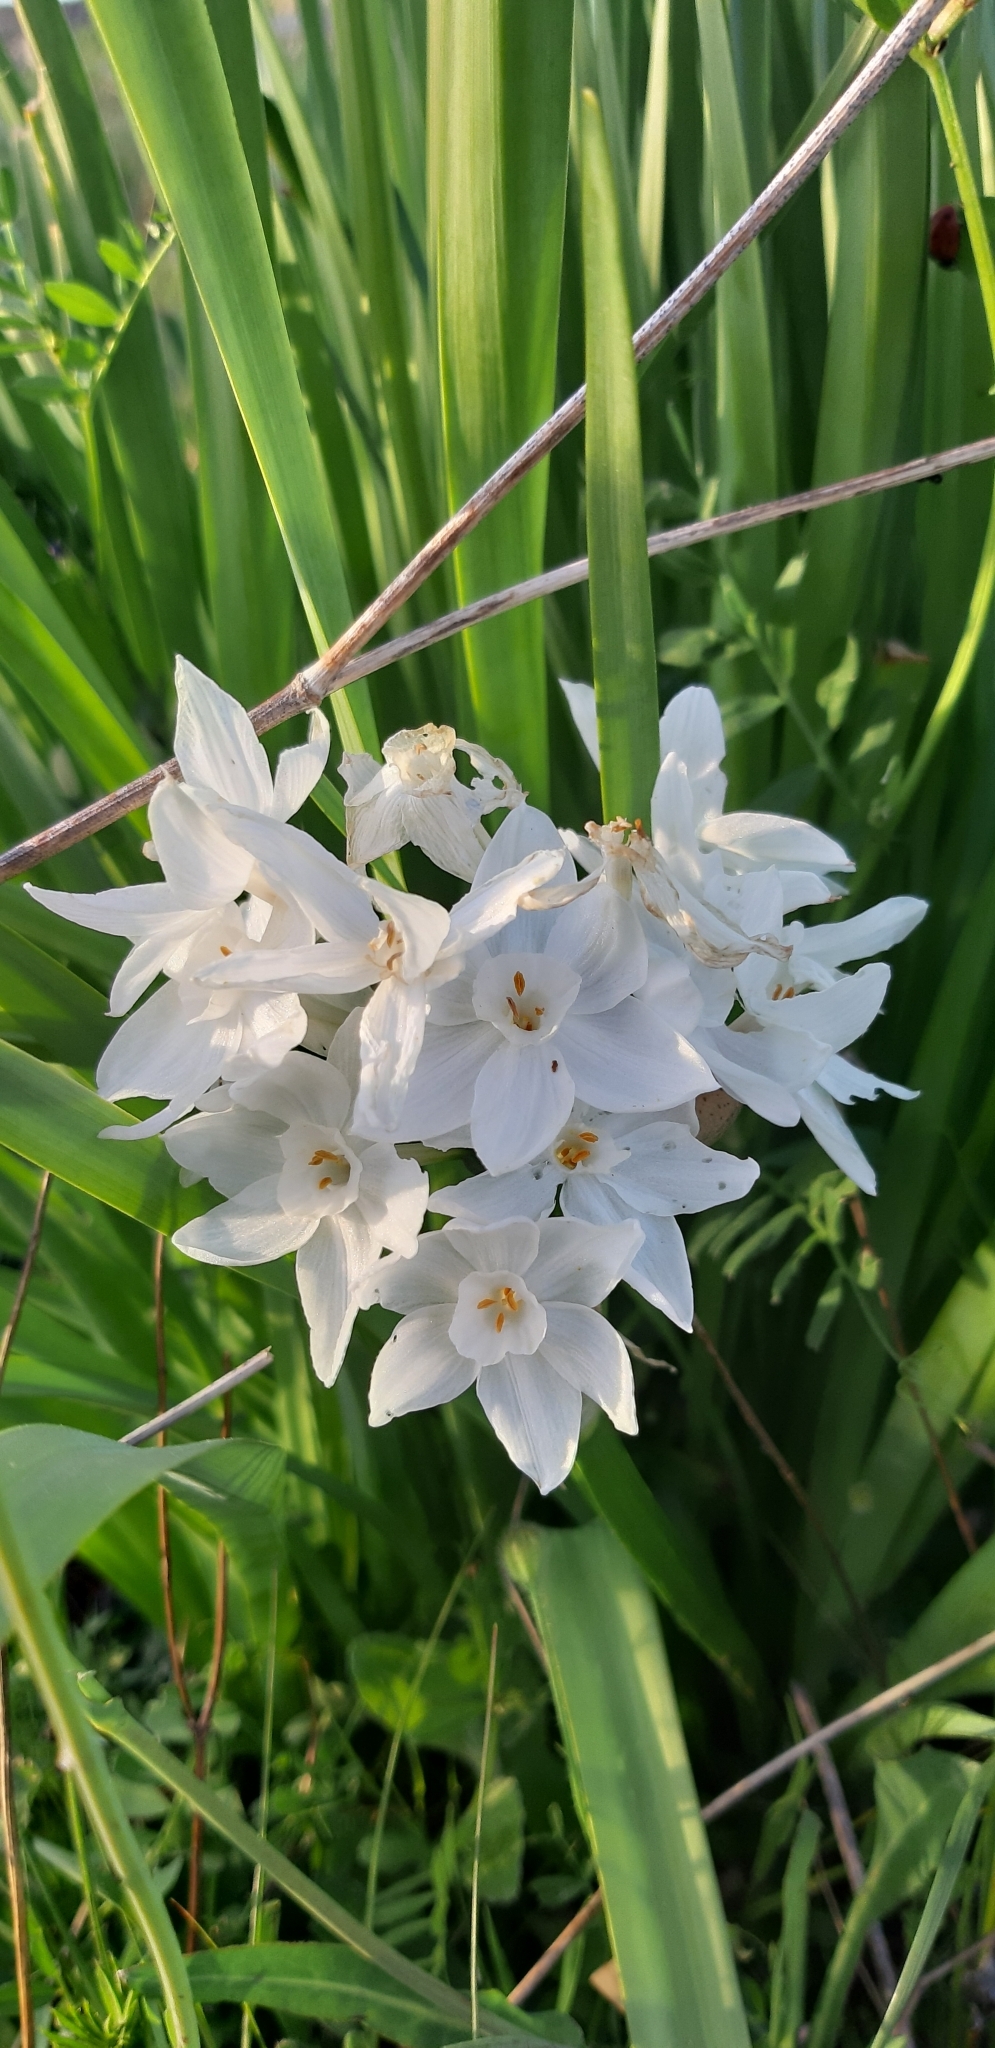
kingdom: Plantae
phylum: Tracheophyta
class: Liliopsida
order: Asparagales
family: Amaryllidaceae
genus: Narcissus
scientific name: Narcissus papyraceus
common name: Paper-white daffodil
